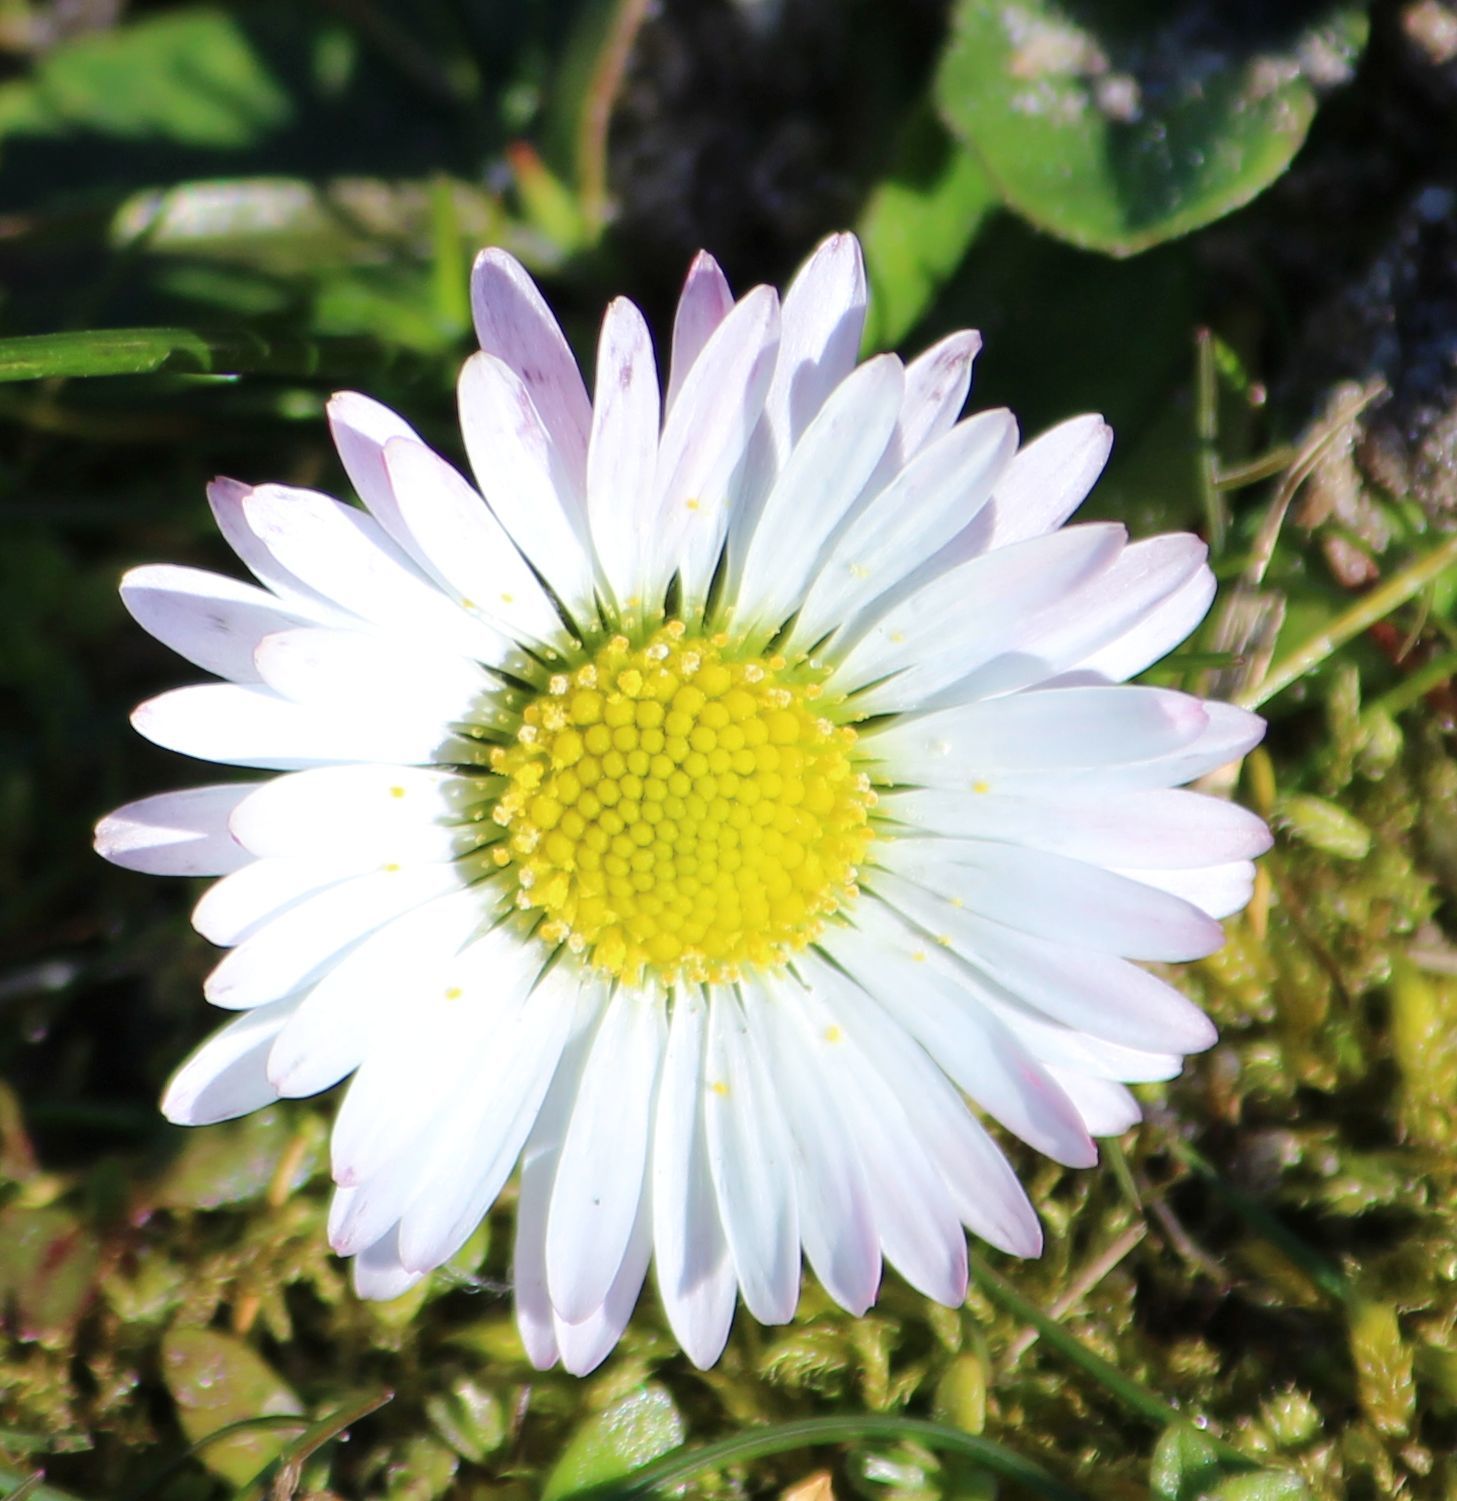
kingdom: Plantae
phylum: Tracheophyta
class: Magnoliopsida
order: Asterales
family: Asteraceae
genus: Bellis
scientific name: Bellis perennis
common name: Lawndaisy
